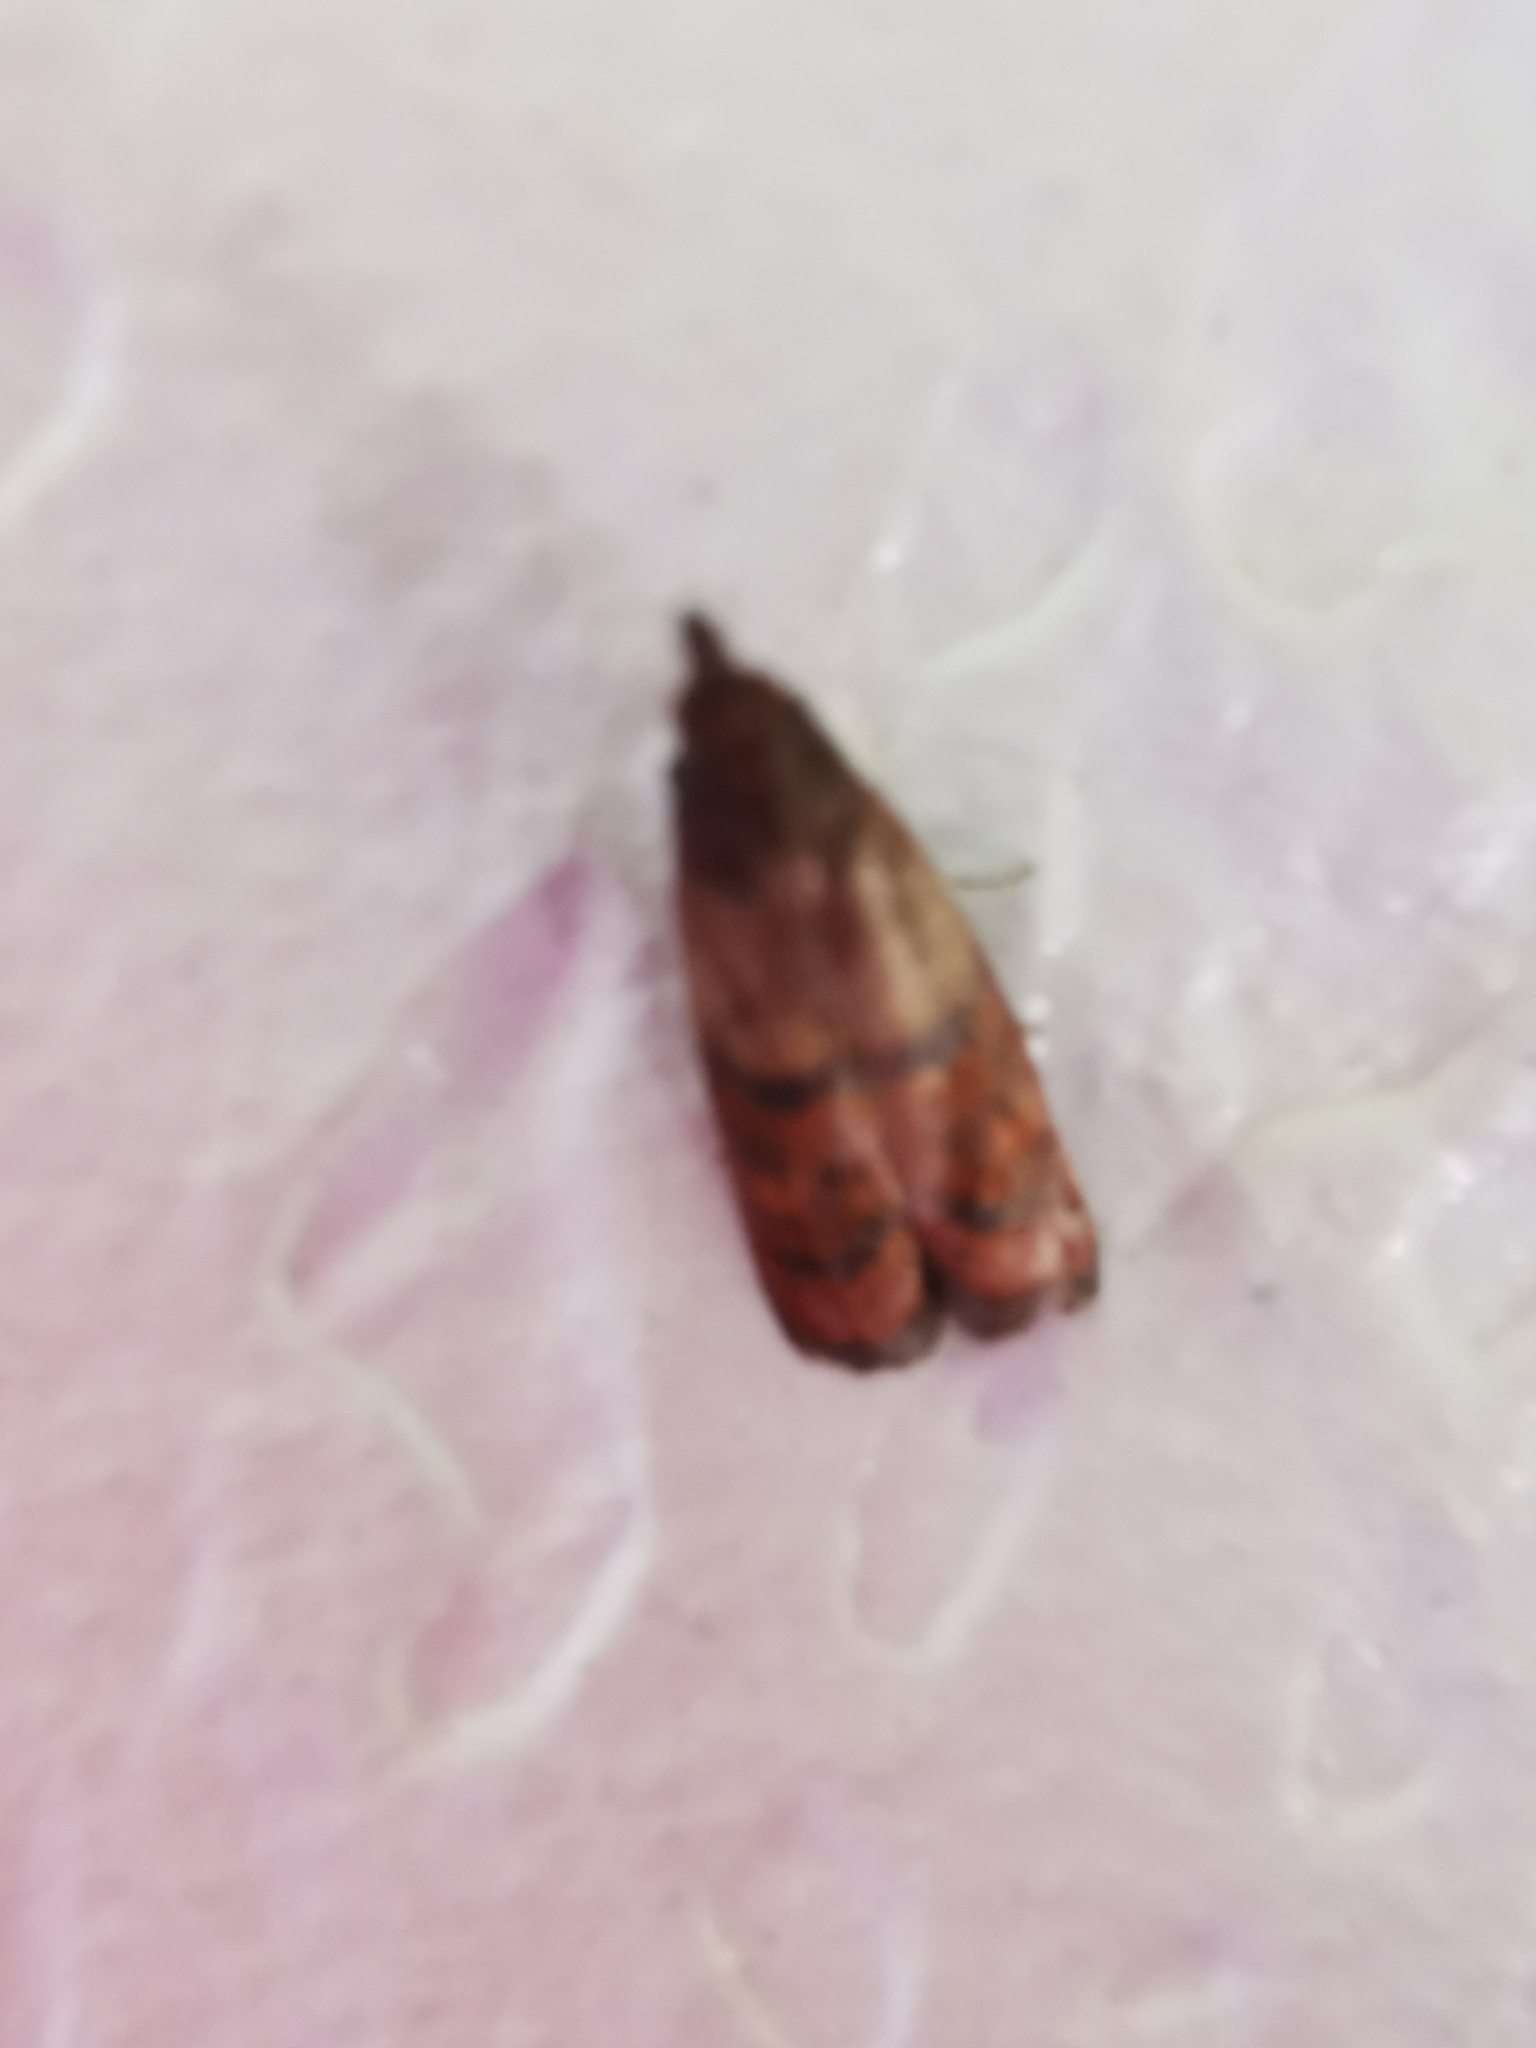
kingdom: Animalia
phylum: Arthropoda
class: Insecta
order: Lepidoptera
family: Pyralidae
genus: Plodia
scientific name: Plodia interpunctella
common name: Indian meal moth
